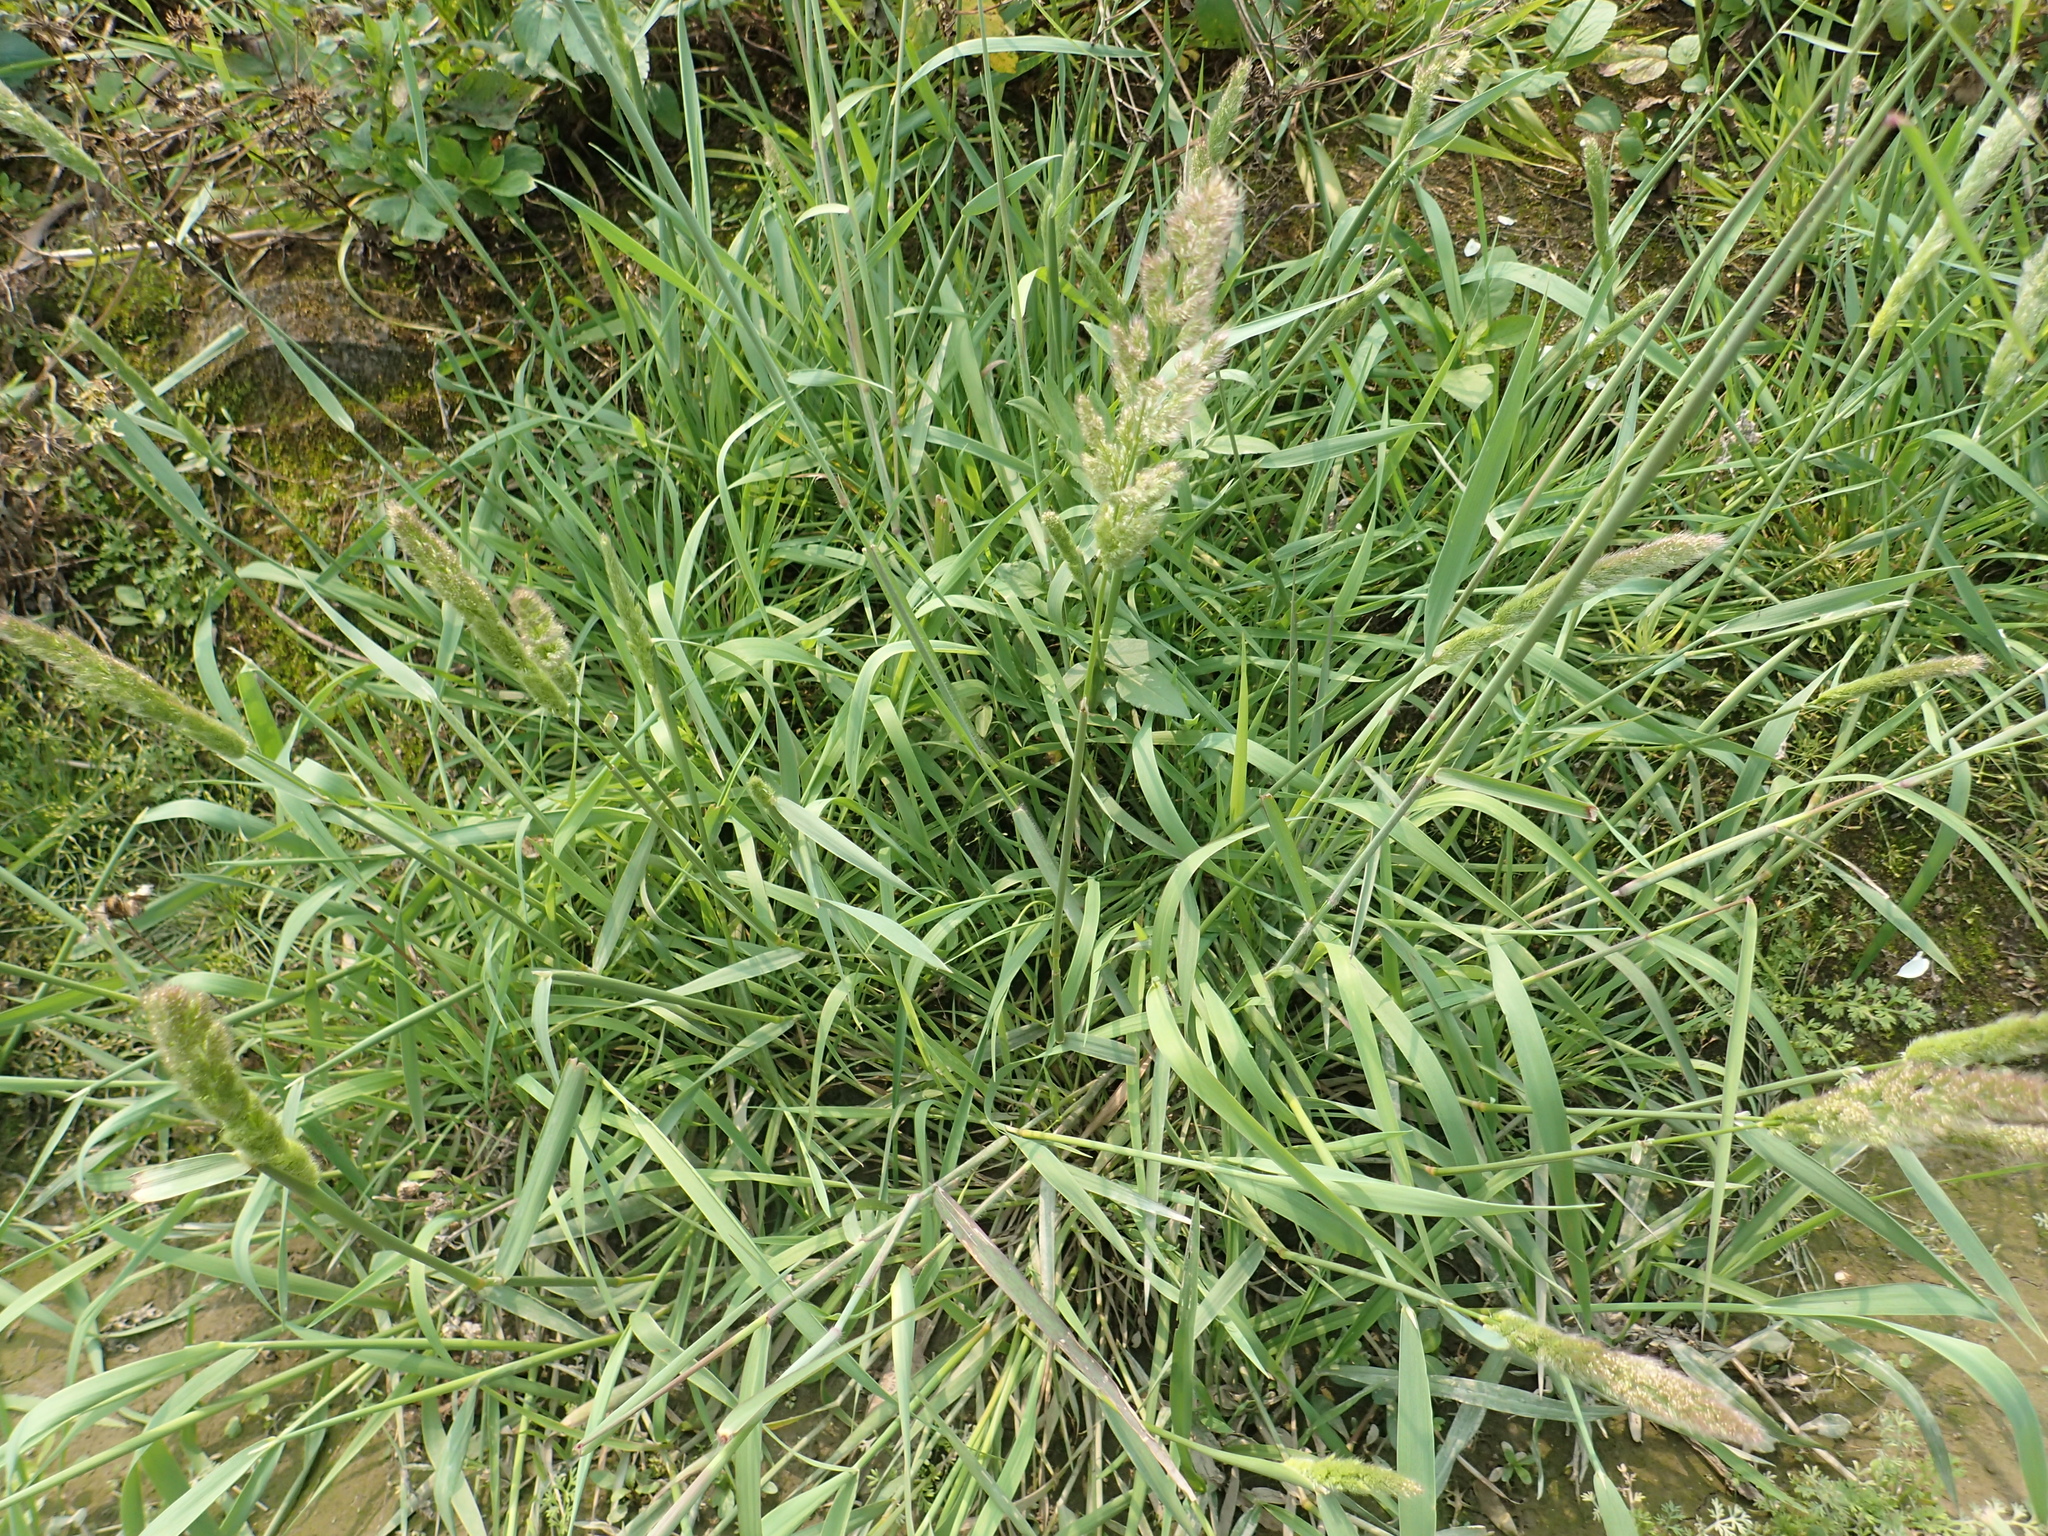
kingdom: Plantae
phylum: Tracheophyta
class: Liliopsida
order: Poales
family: Poaceae
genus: Polypogon
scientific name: Polypogon fugax
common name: Asia minor bluegrass
